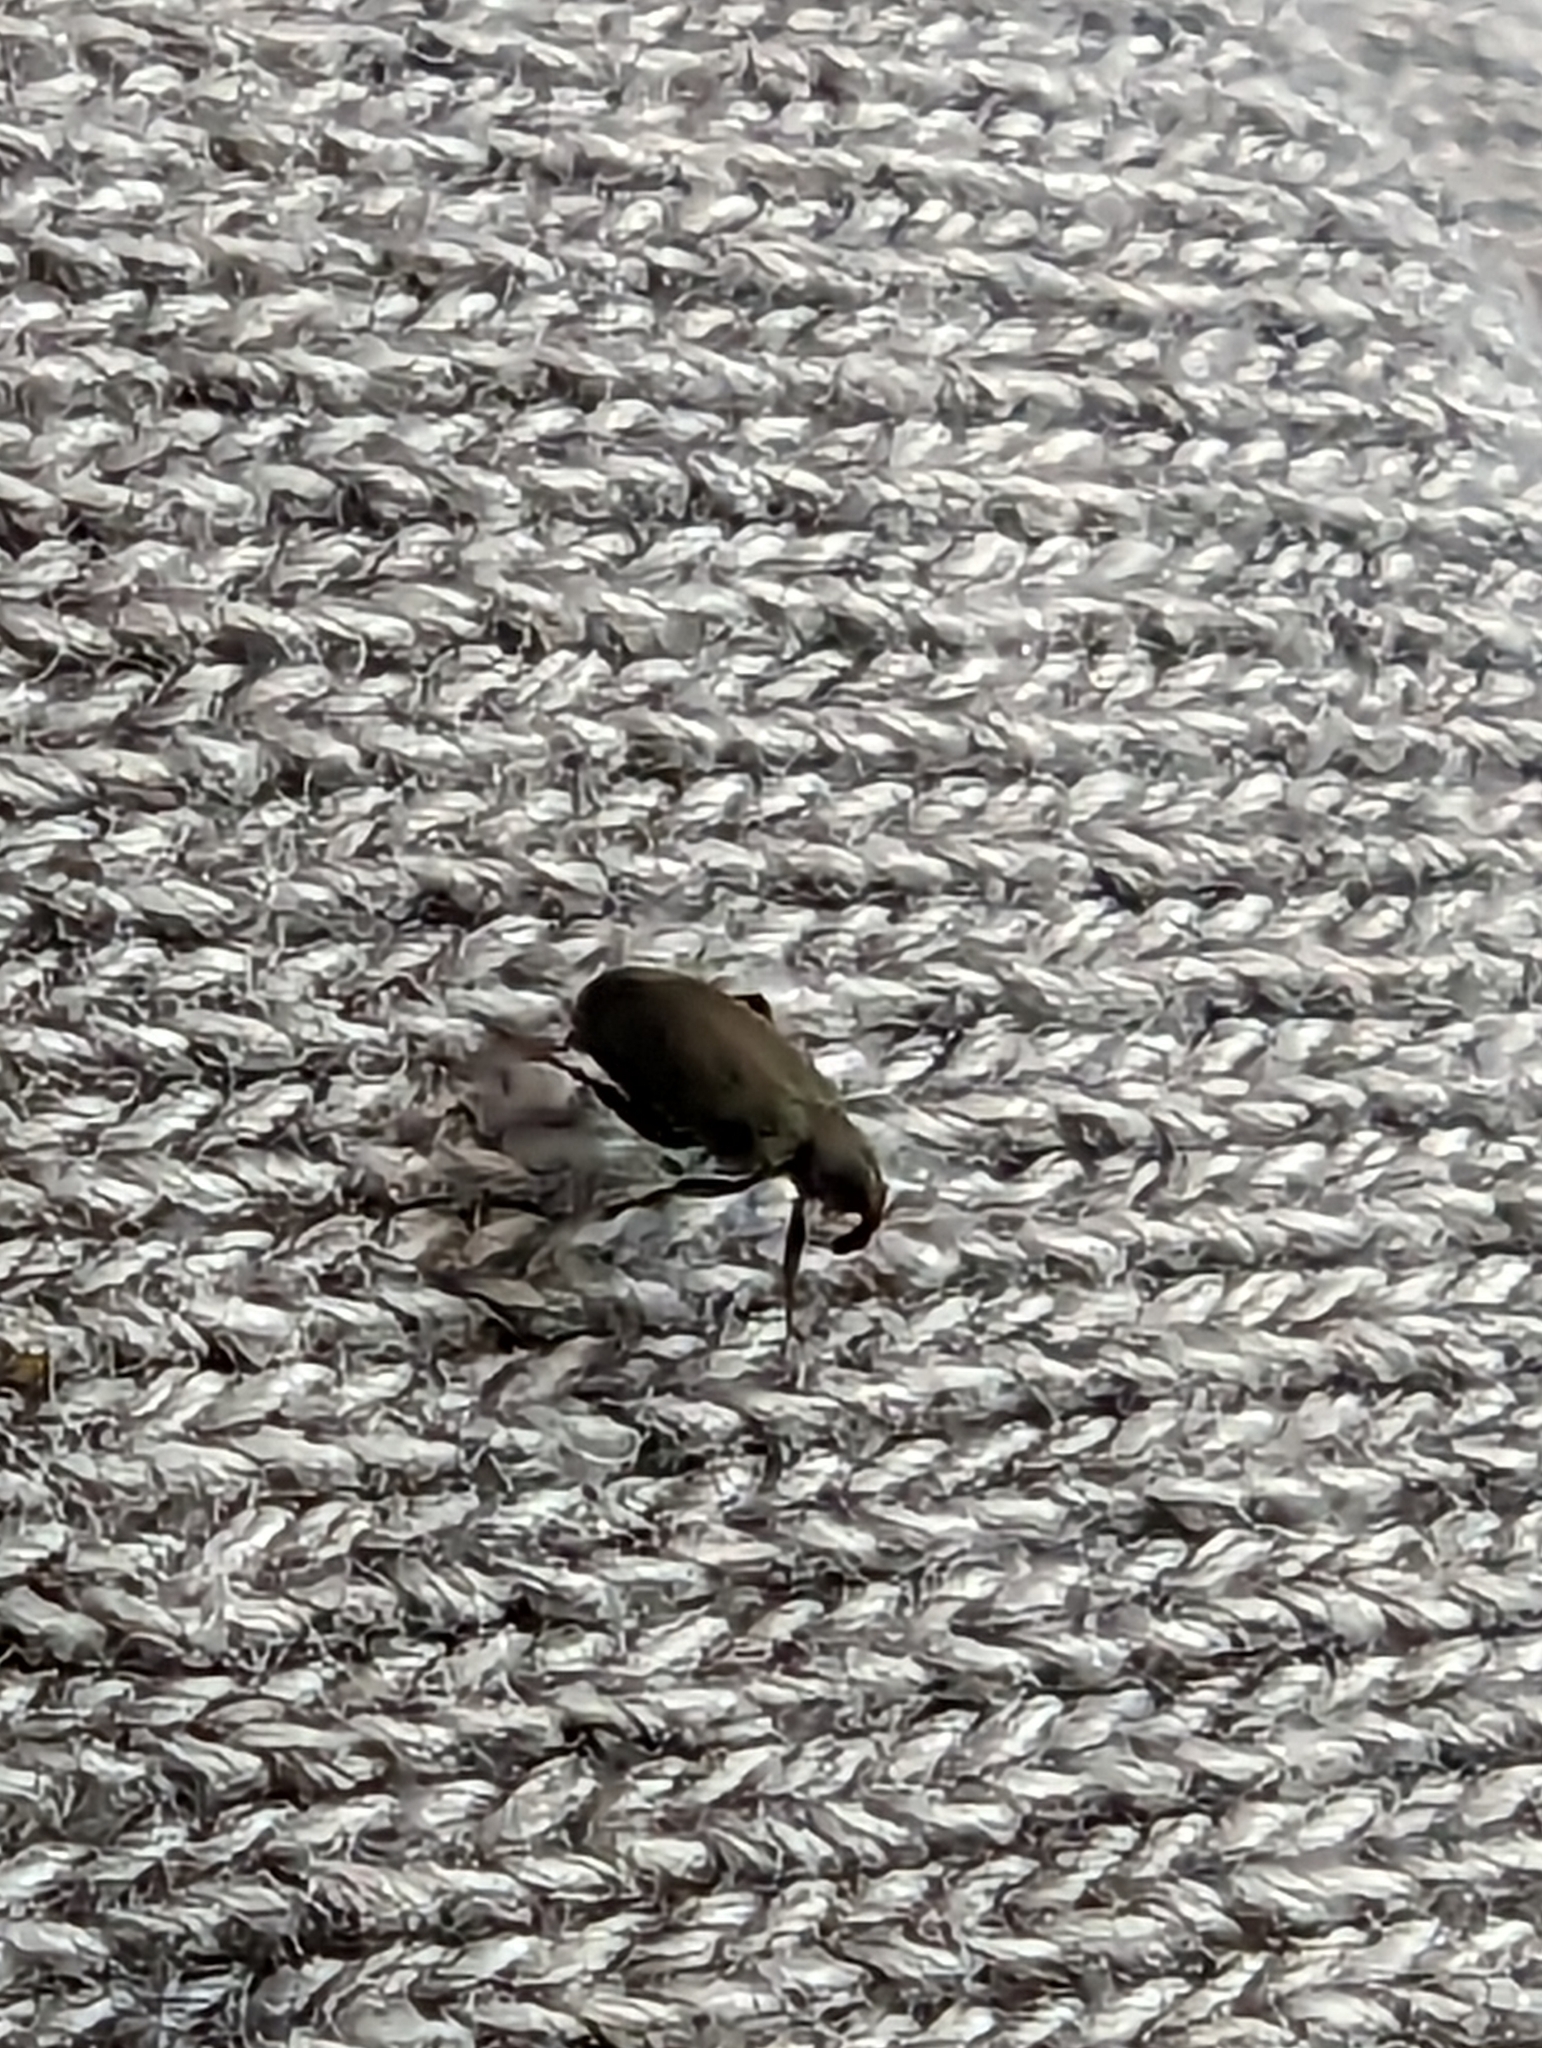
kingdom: Animalia
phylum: Arthropoda
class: Insecta
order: Coleoptera
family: Curculionidae
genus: Orchestes
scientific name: Orchestes fagi
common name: Beech leaf miner
